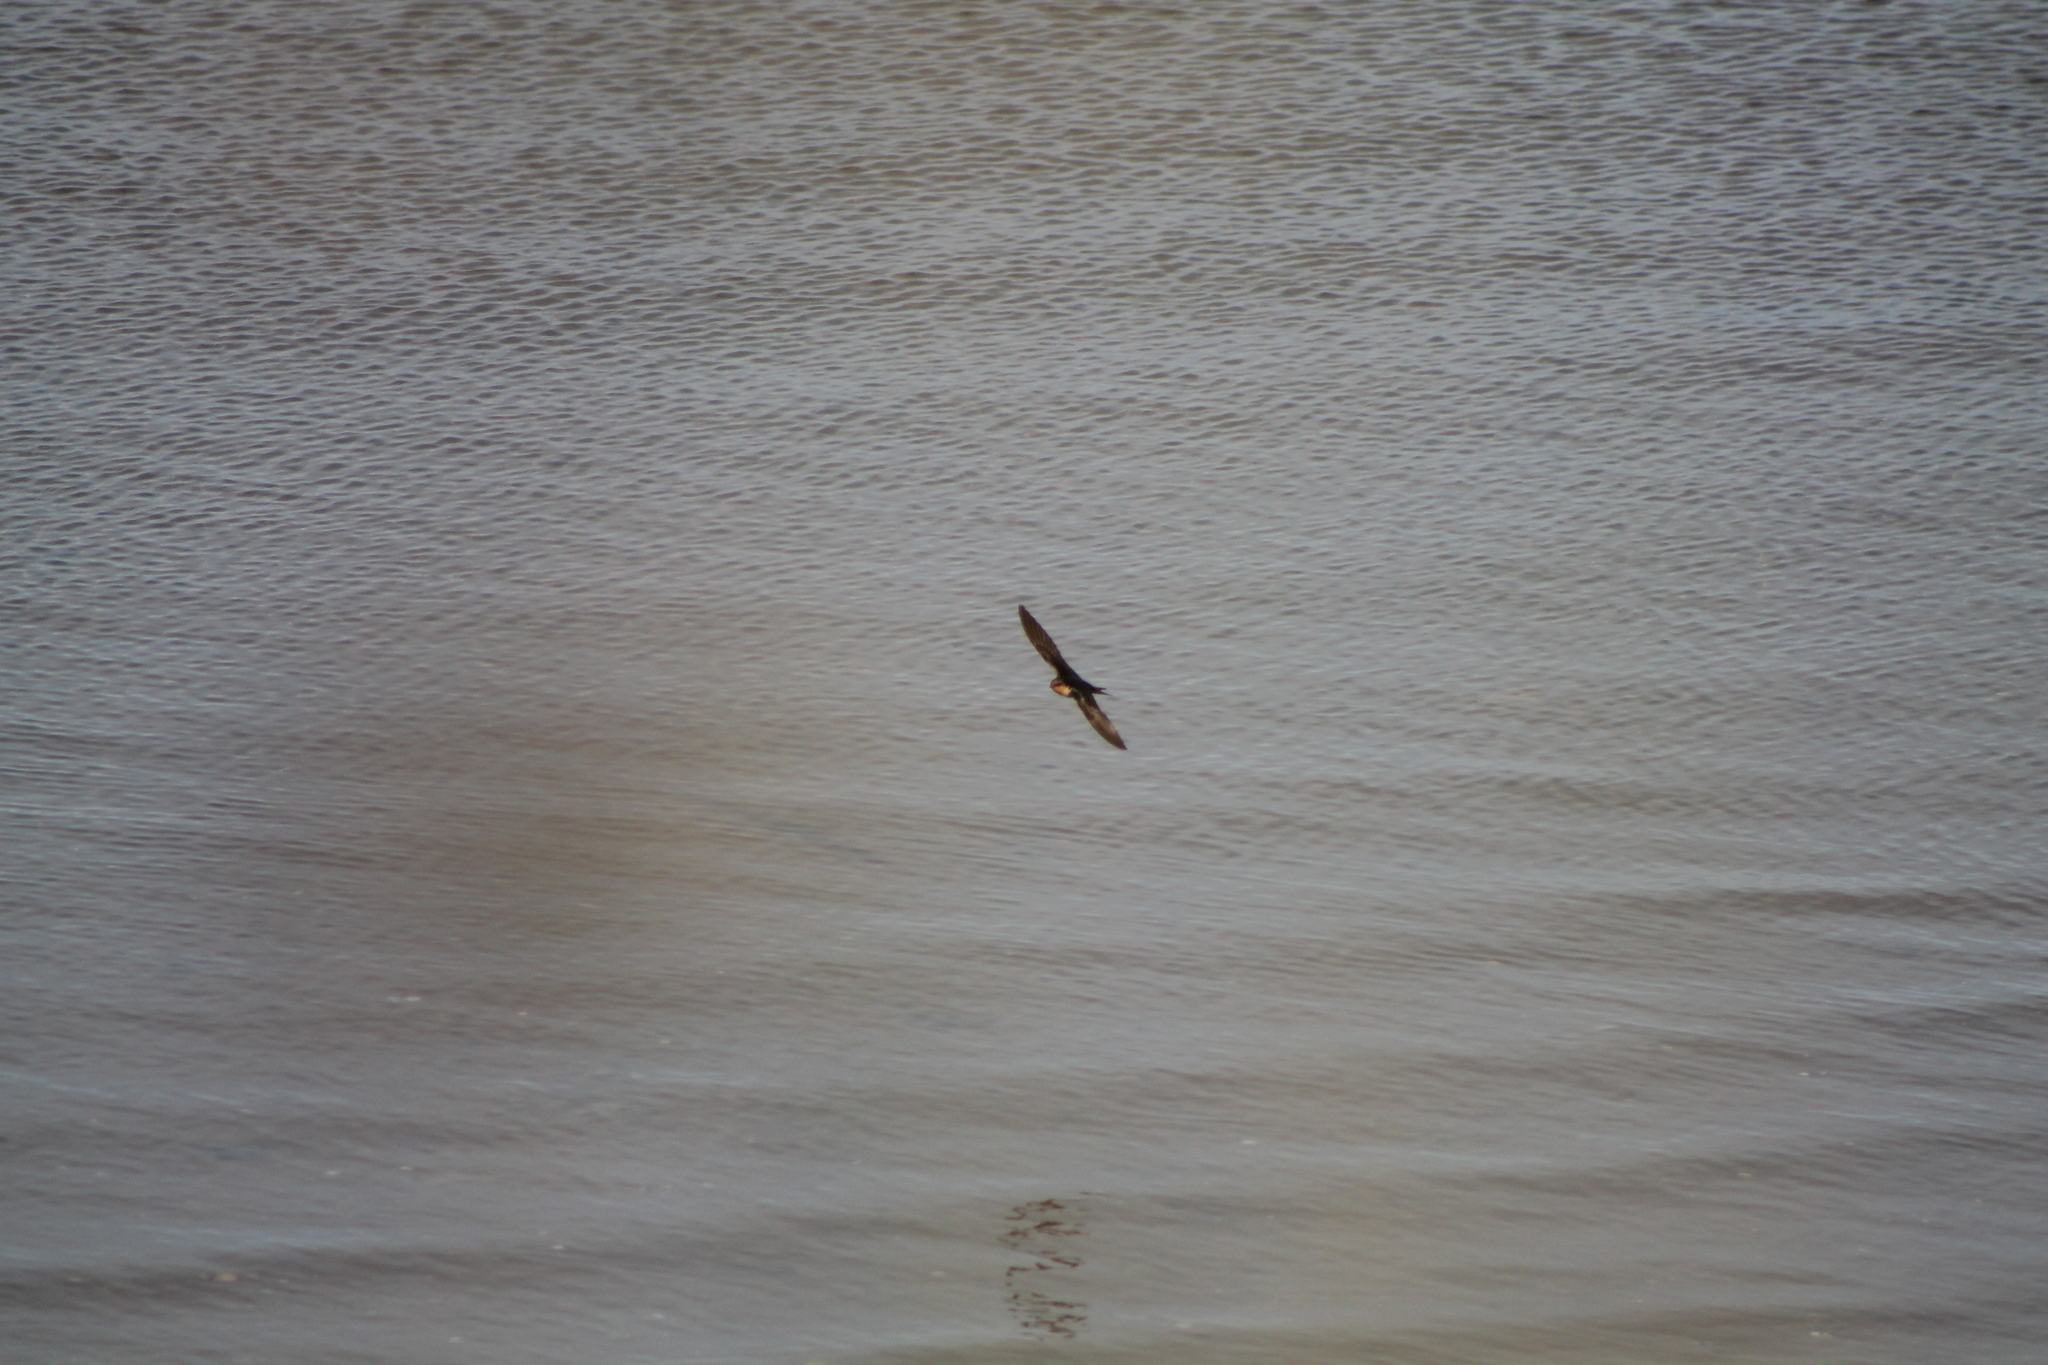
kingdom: Animalia
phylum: Chordata
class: Aves
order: Passeriformes
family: Hirundinidae
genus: Hirundo
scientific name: Hirundo neoxena
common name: Welcome swallow
